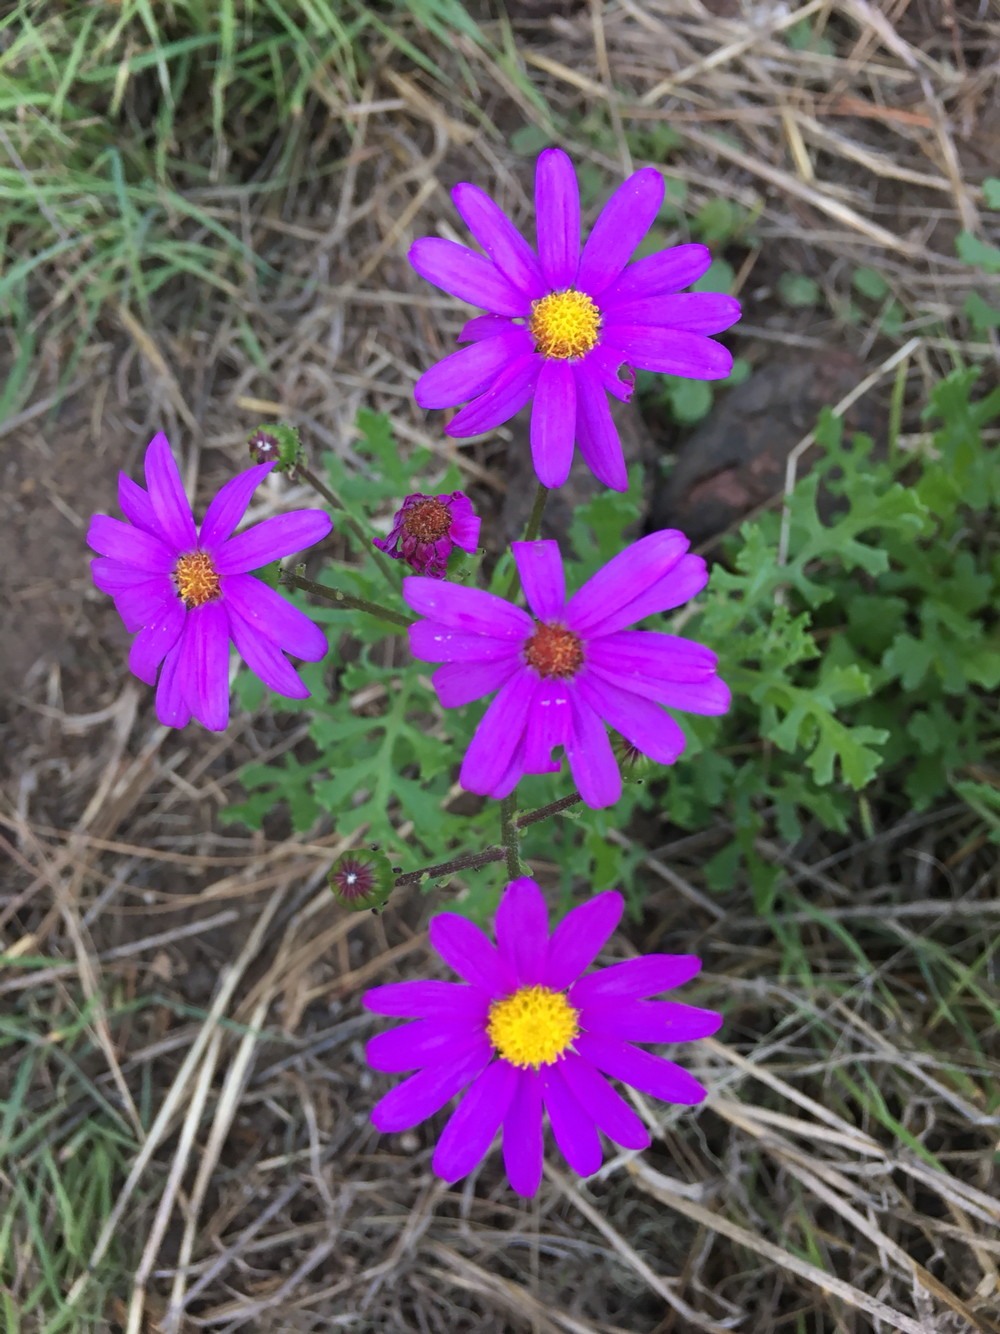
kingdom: Plantae
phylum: Tracheophyta
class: Magnoliopsida
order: Asterales
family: Asteraceae
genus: Senecio
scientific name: Senecio elegans
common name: Purple groundsel
